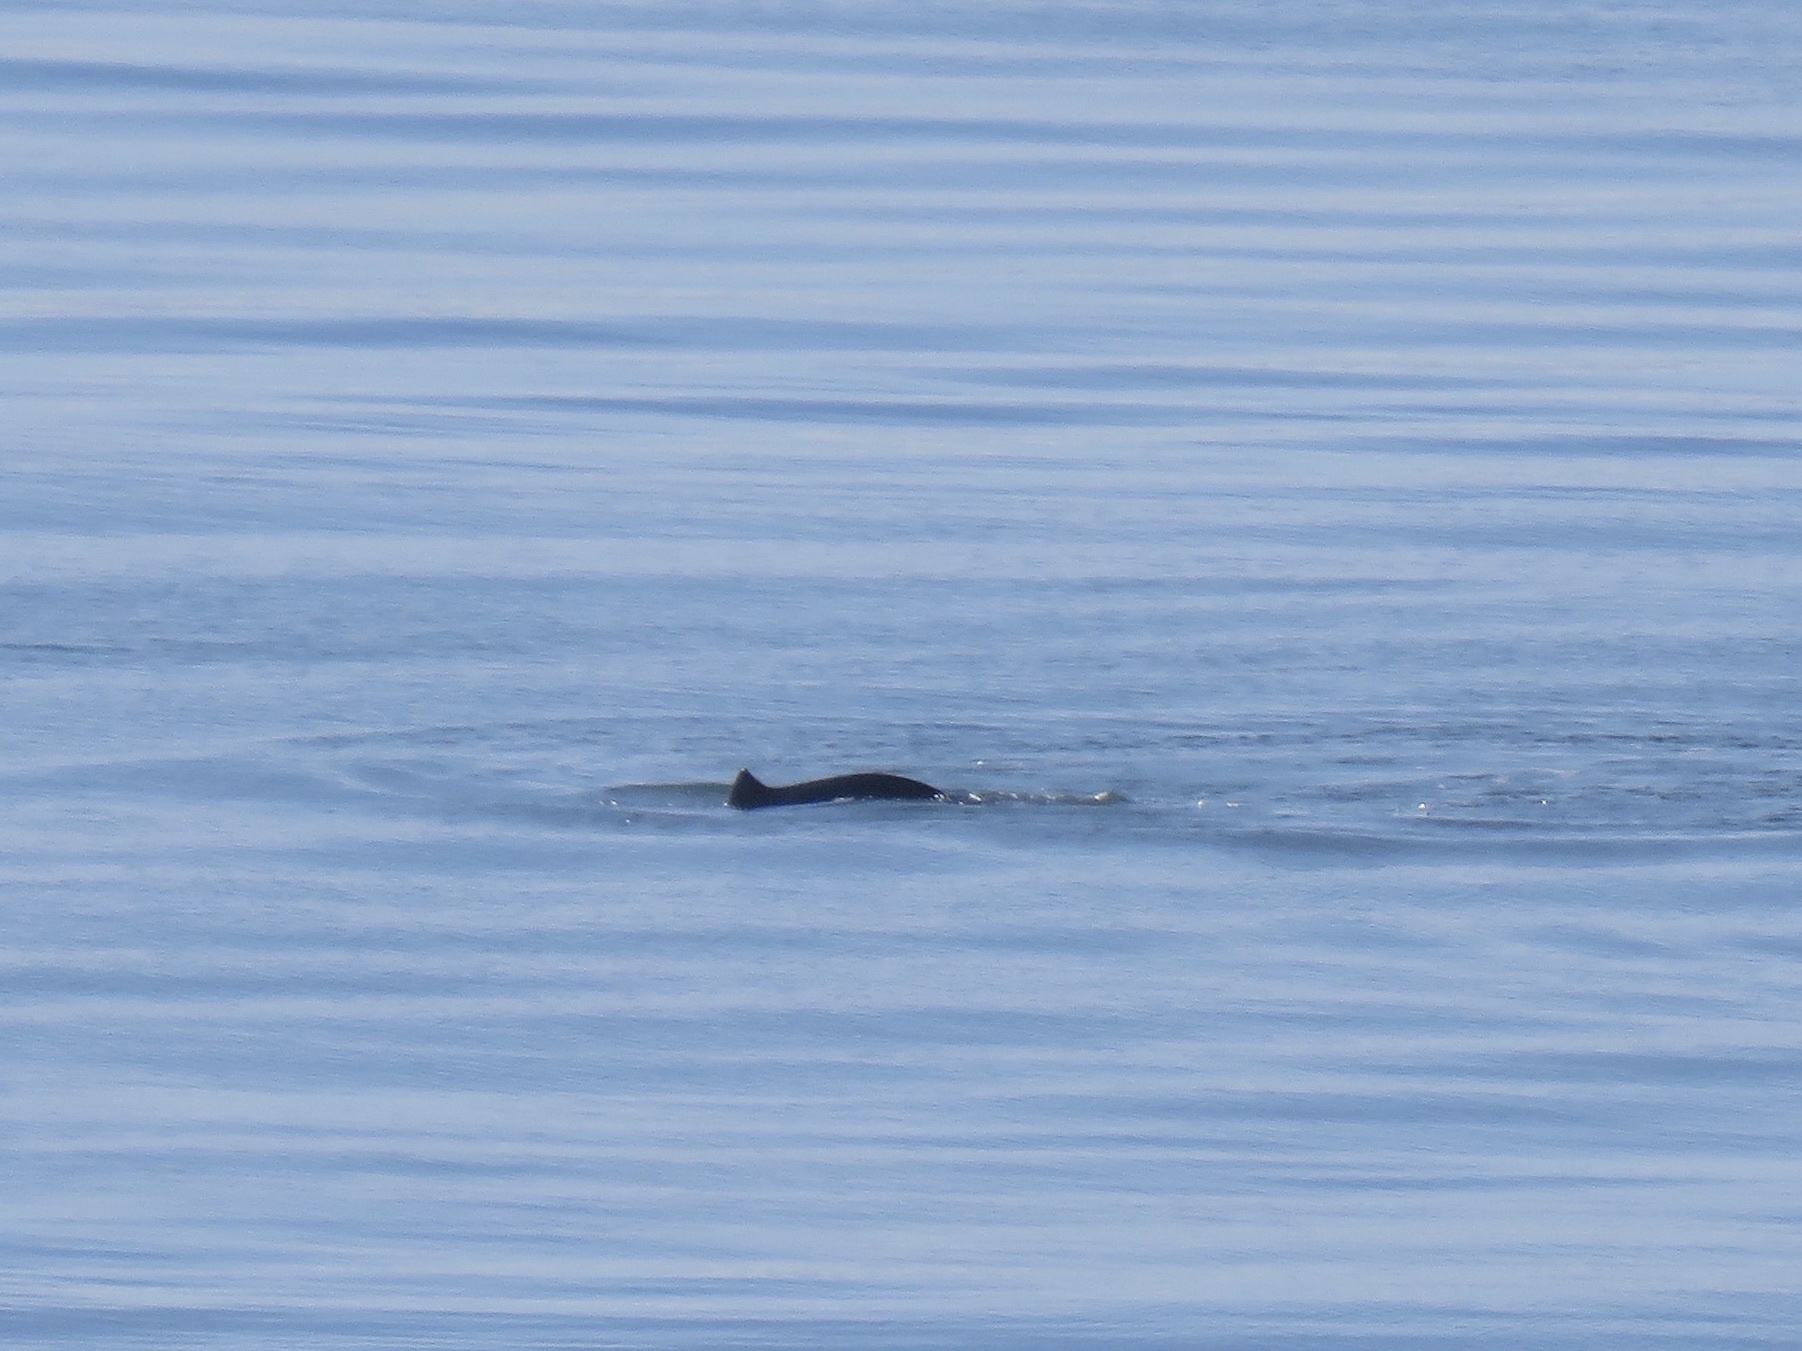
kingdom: Animalia
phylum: Chordata
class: Mammalia
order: Cetacea
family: Phocoenidae
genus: Phocoena
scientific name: Phocoena phocoena
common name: Harbor porpoise
